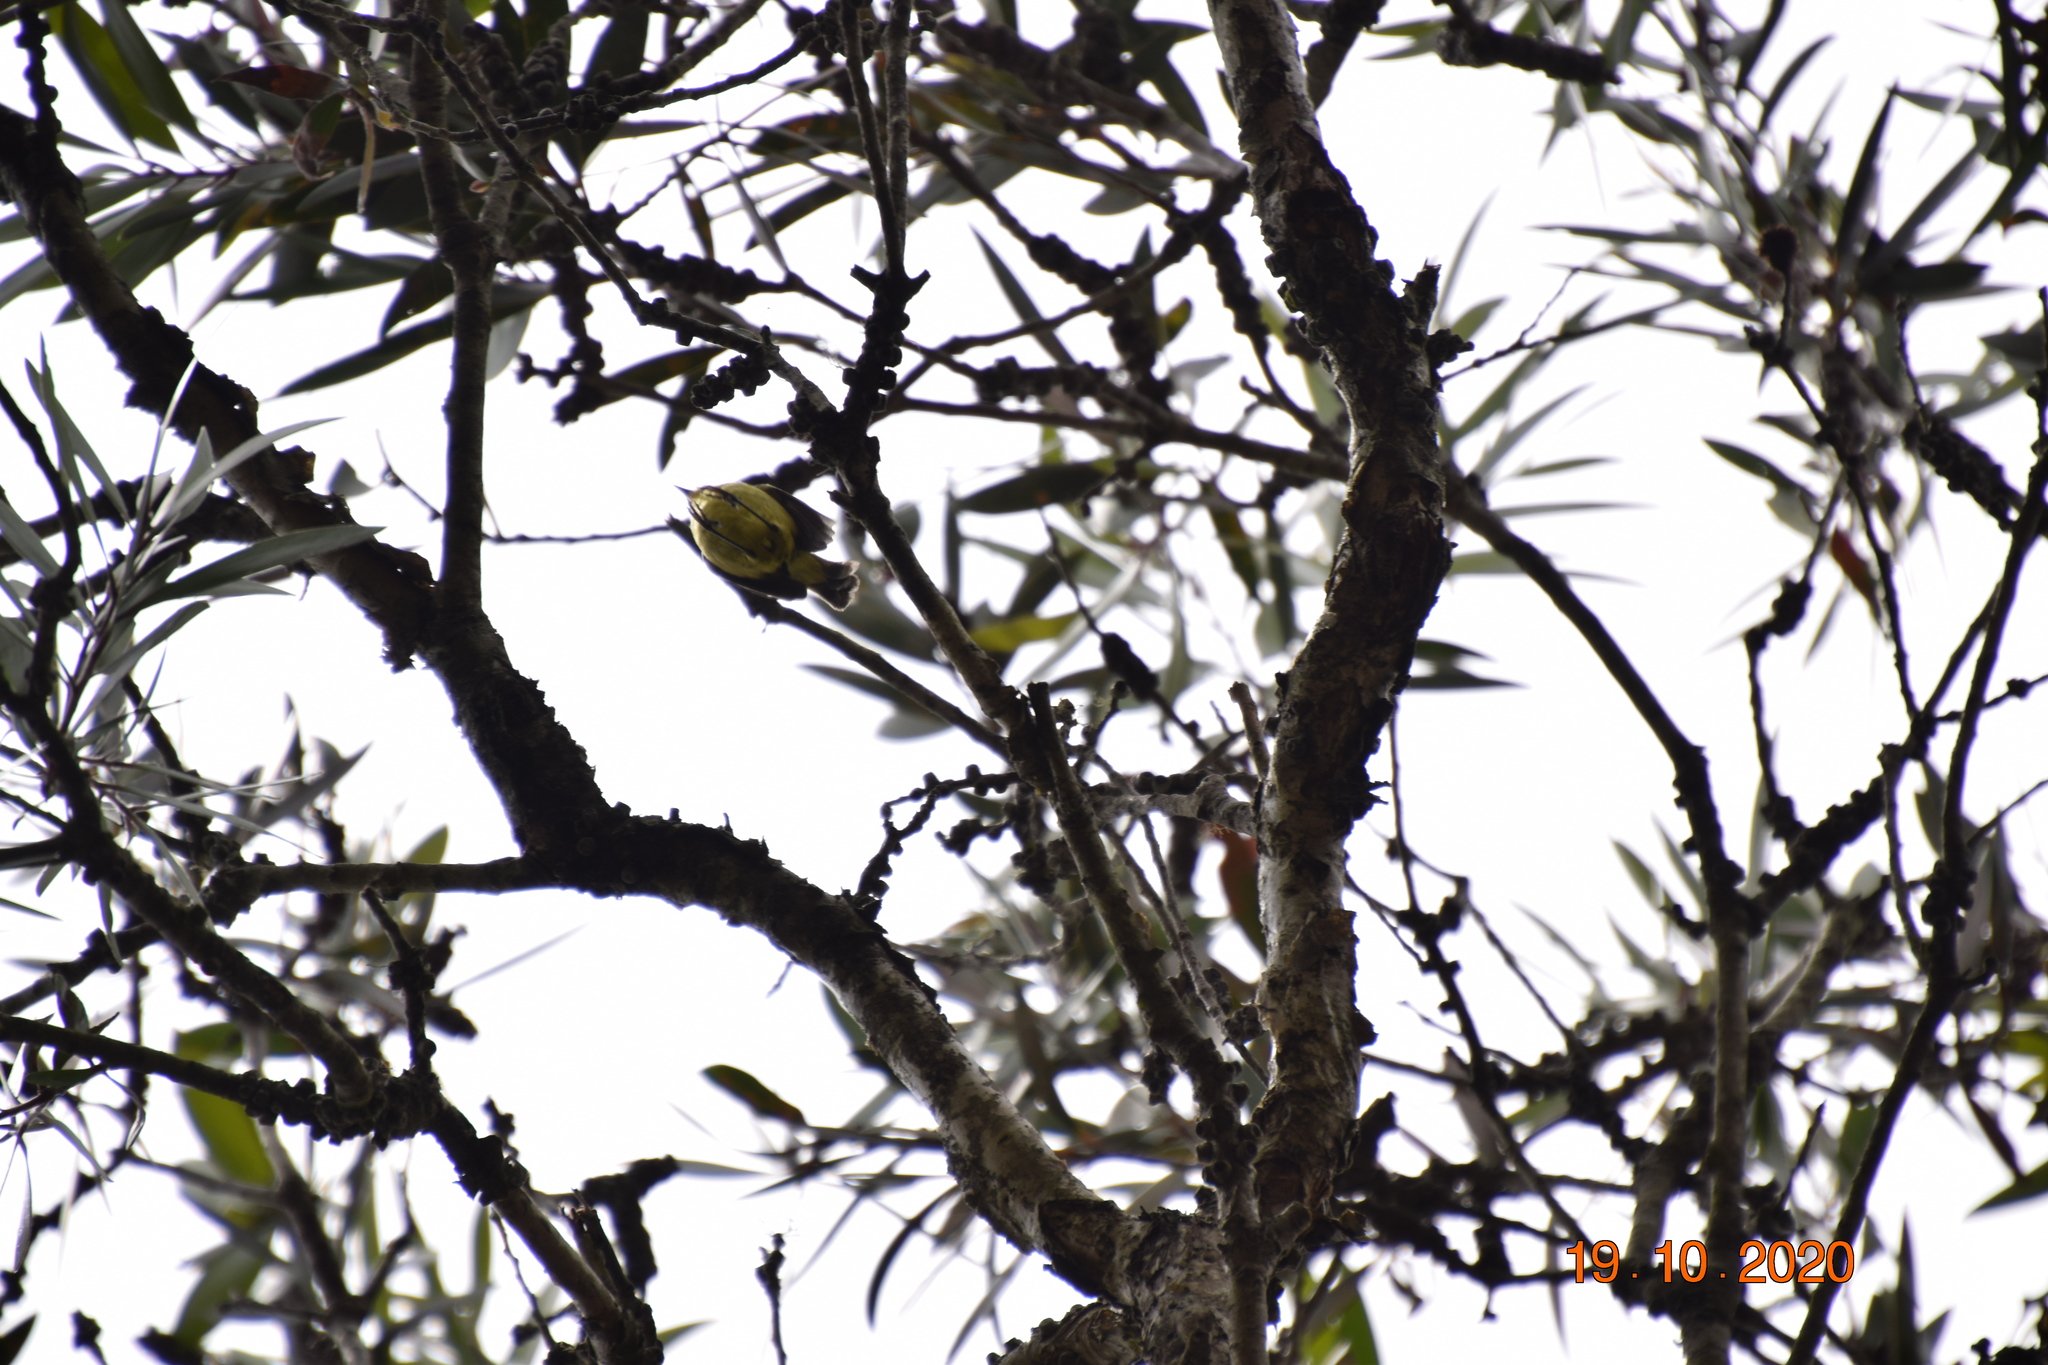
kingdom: Animalia
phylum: Chordata
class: Aves
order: Passeriformes
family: Acanthizidae
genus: Acanthiza
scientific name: Acanthiza nana
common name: Yellow thornbill
